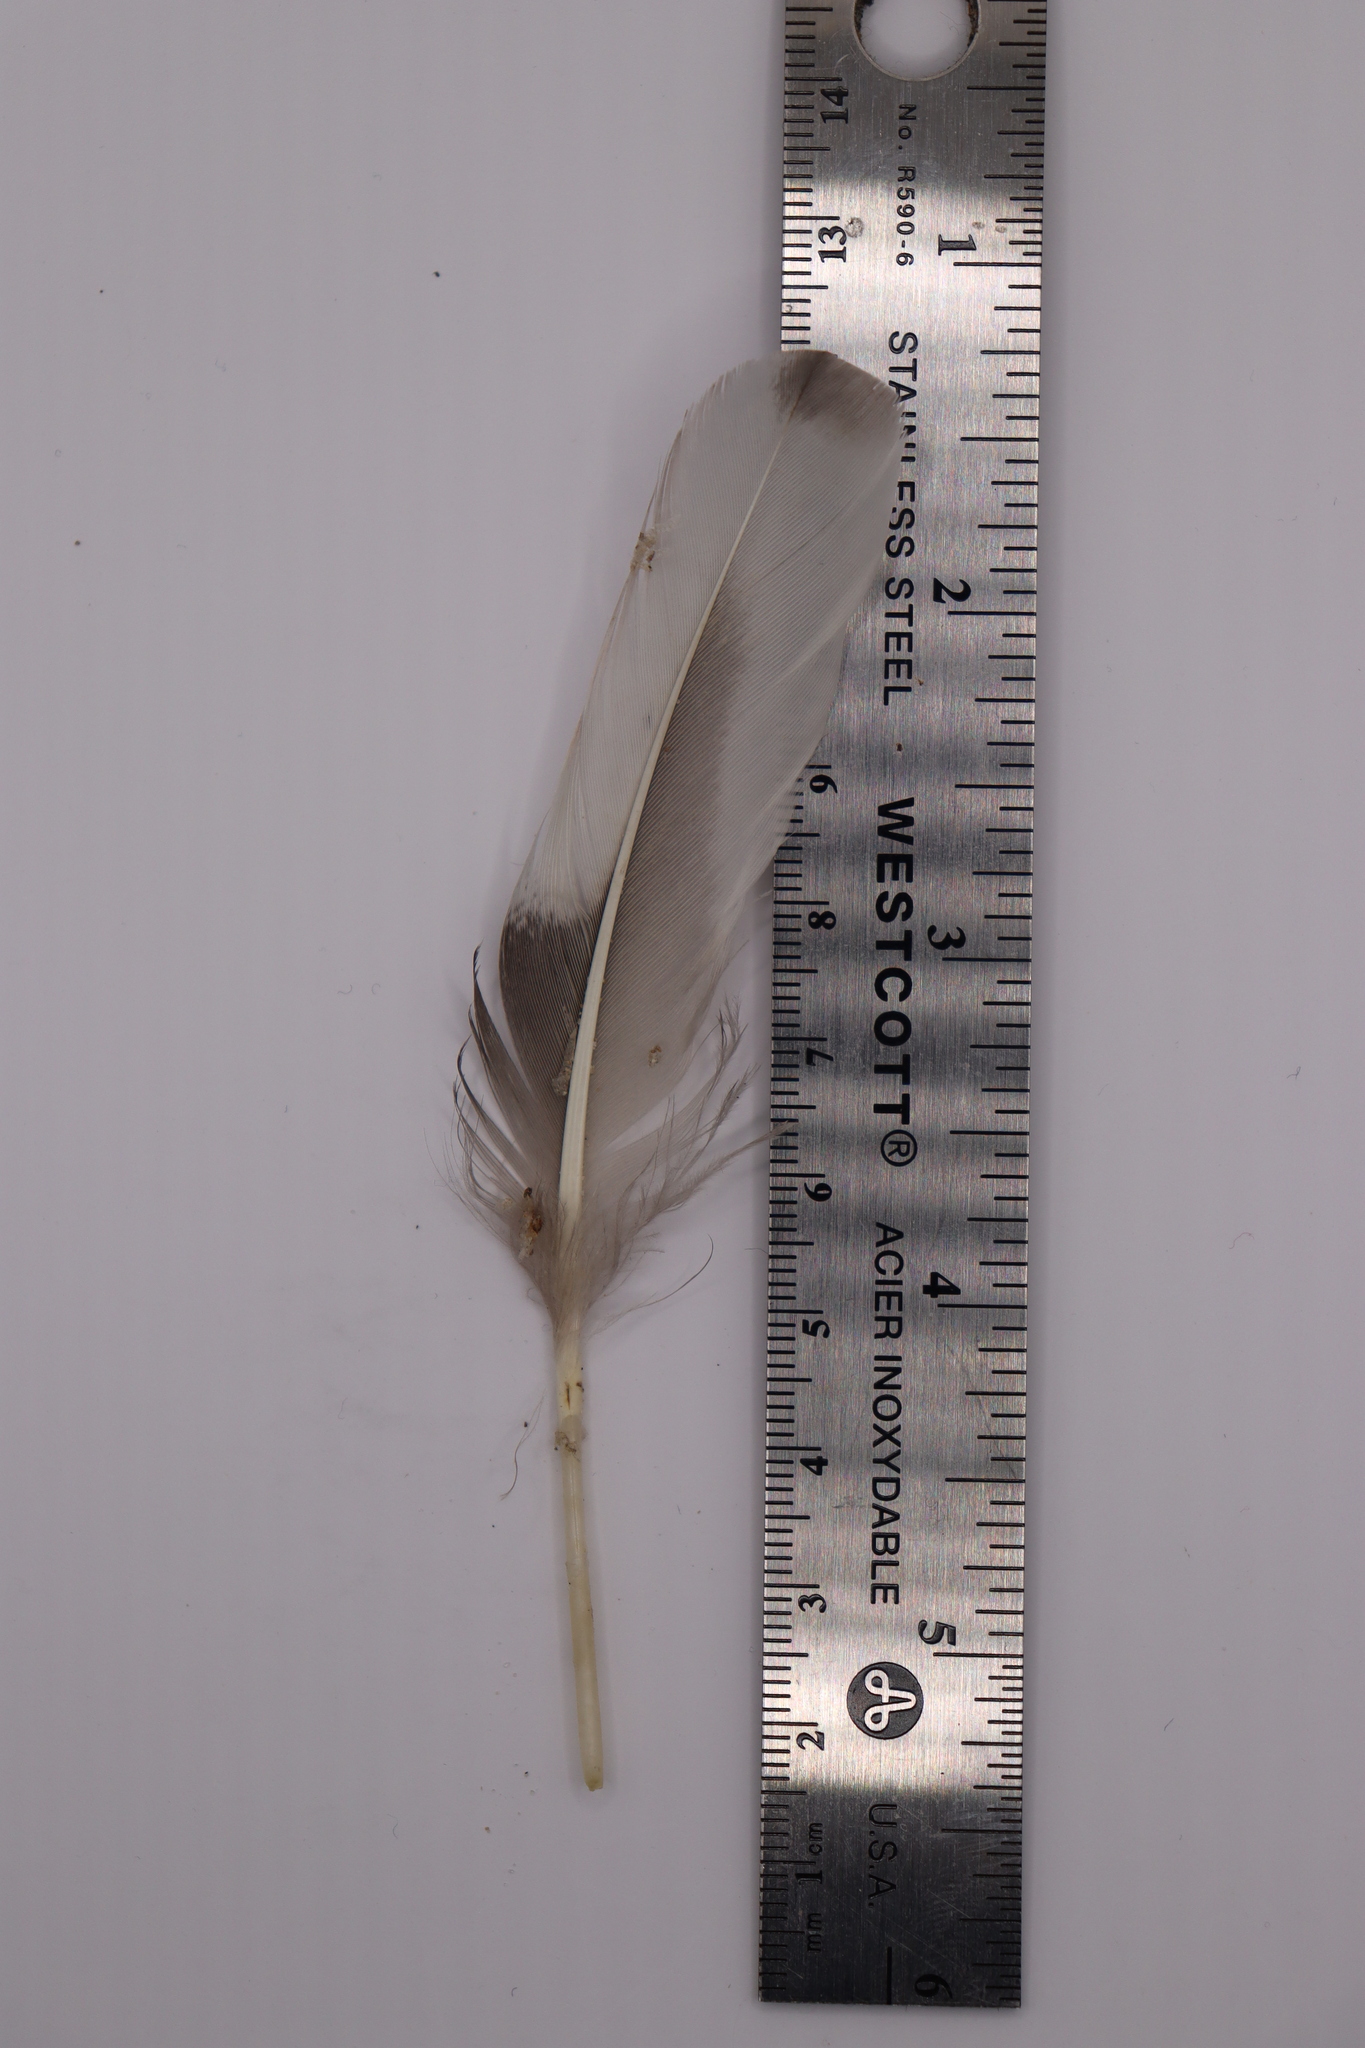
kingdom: Animalia
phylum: Chordata
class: Aves
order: Anseriformes
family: Anatidae
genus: Mergus
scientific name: Mergus merganser
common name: Common merganser
